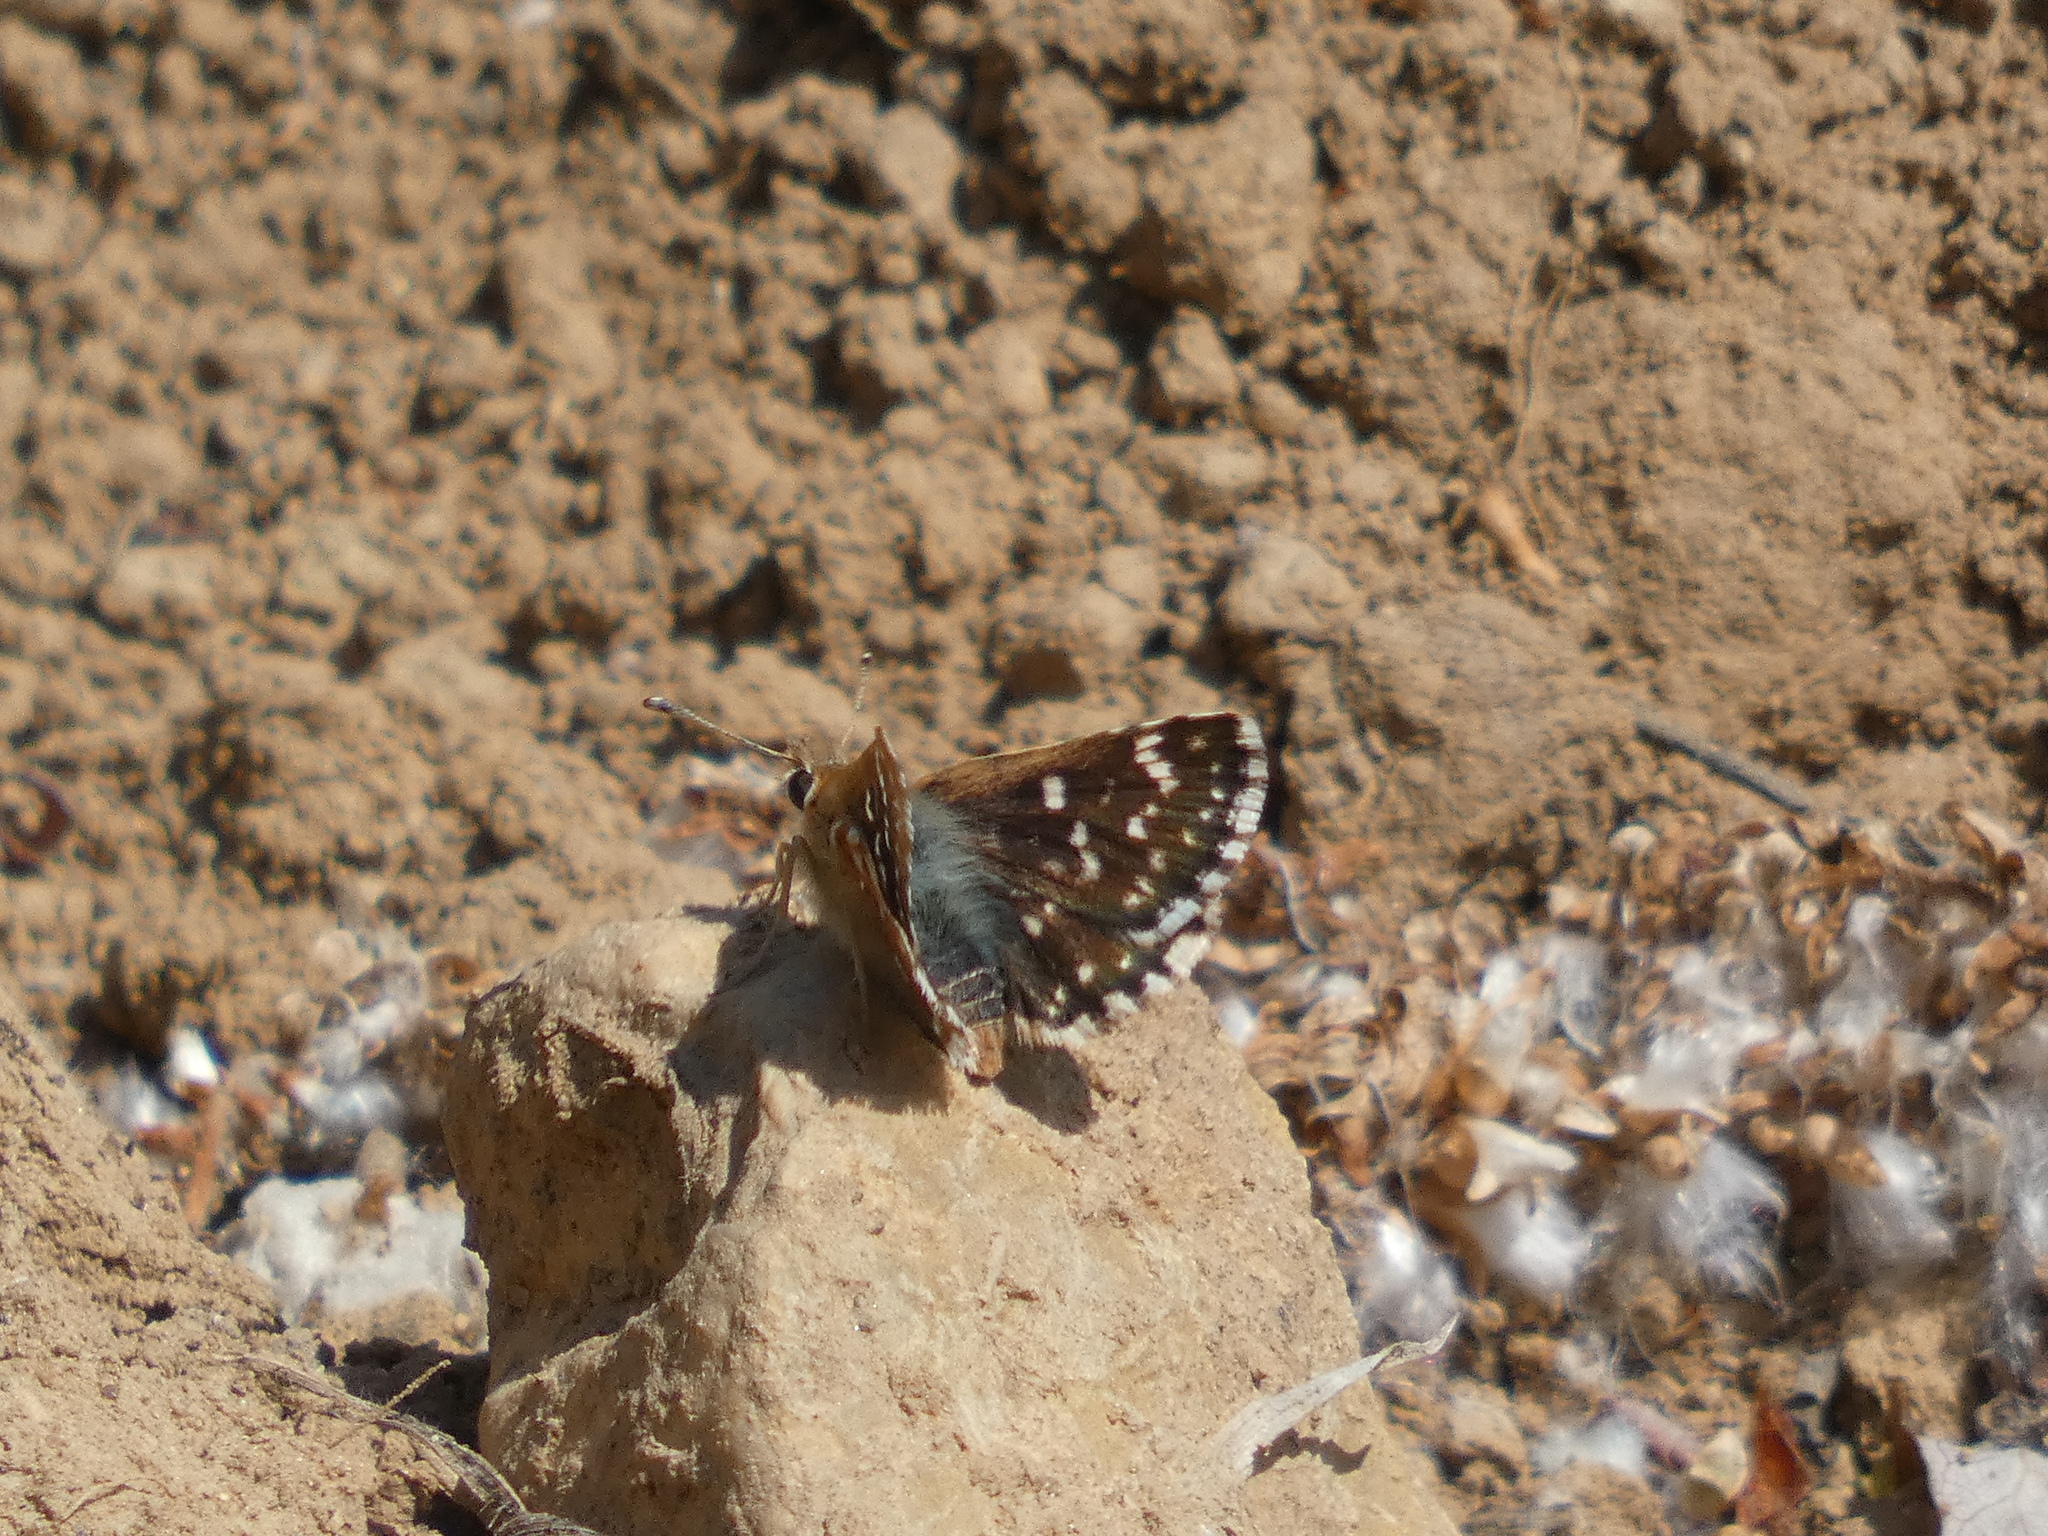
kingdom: Animalia
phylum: Arthropoda
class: Insecta
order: Lepidoptera
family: Hesperiidae
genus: Spialia
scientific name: Spialia sertorius
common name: Red underwing skipper
